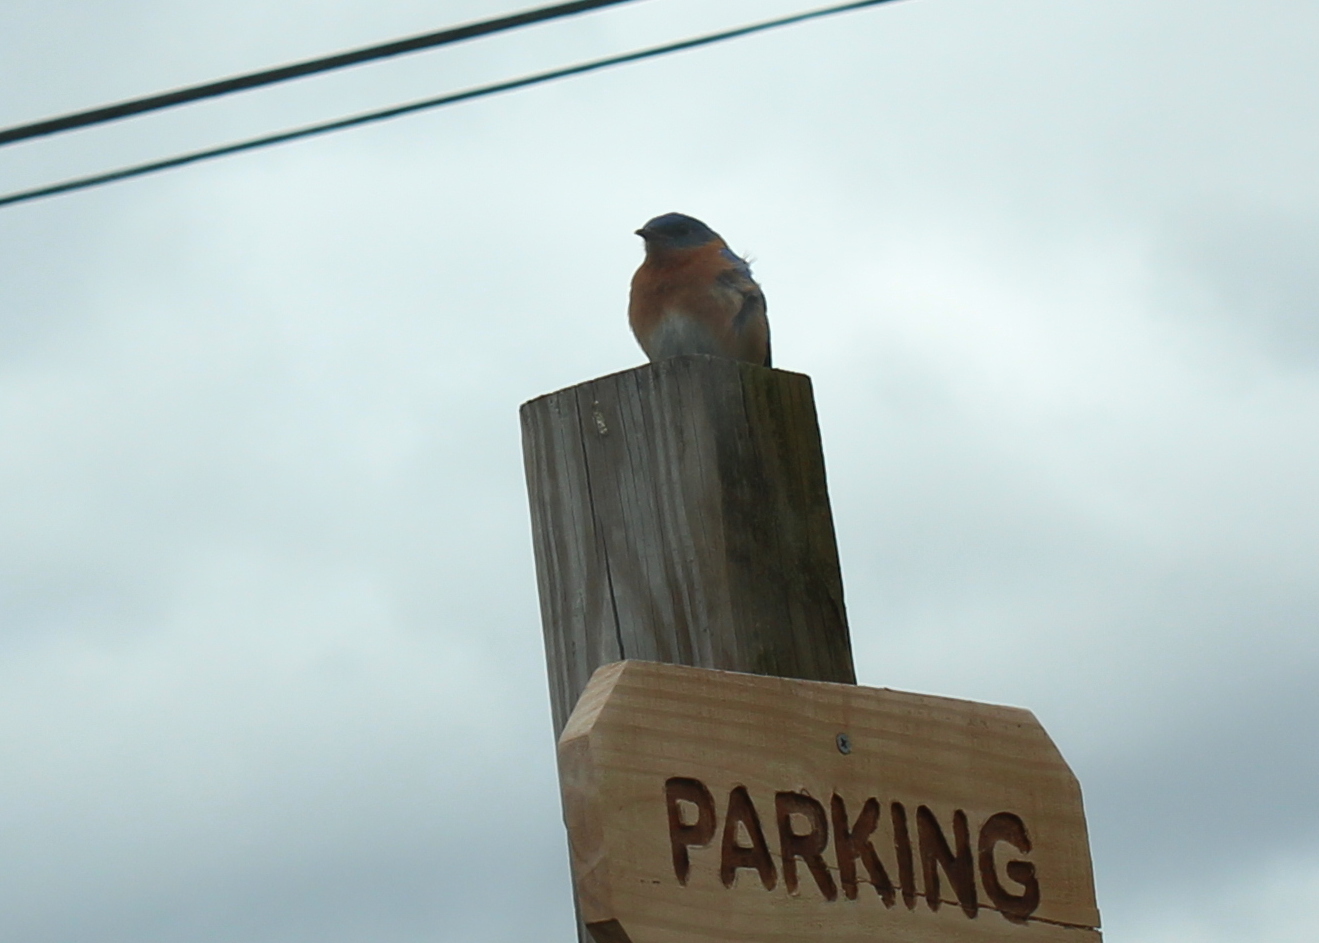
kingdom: Animalia
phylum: Chordata
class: Aves
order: Passeriformes
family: Turdidae
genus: Sialia
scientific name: Sialia sialis
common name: Eastern bluebird
